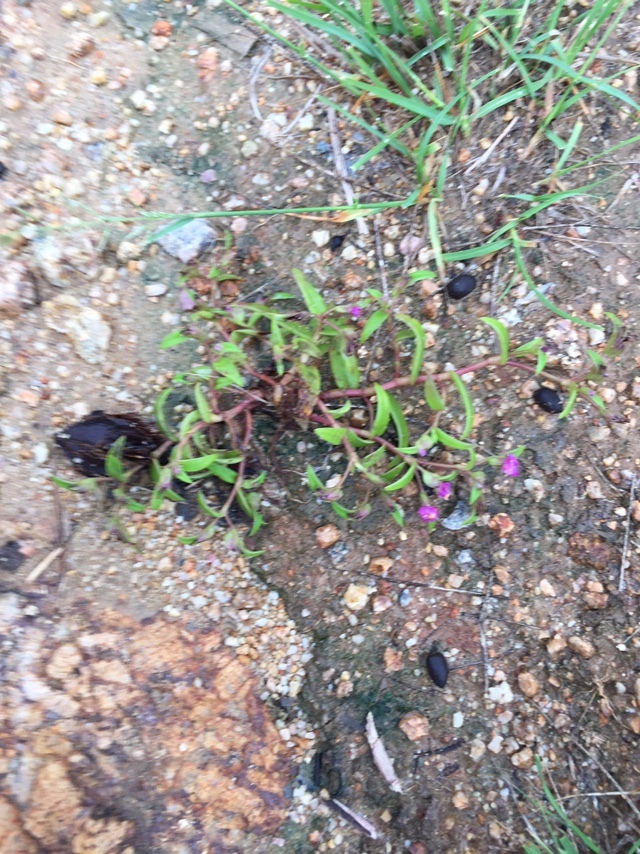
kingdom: Plantae
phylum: Tracheophyta
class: Liliopsida
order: Commelinales
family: Commelinaceae
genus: Cyanotis
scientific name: Cyanotis fasciculata
